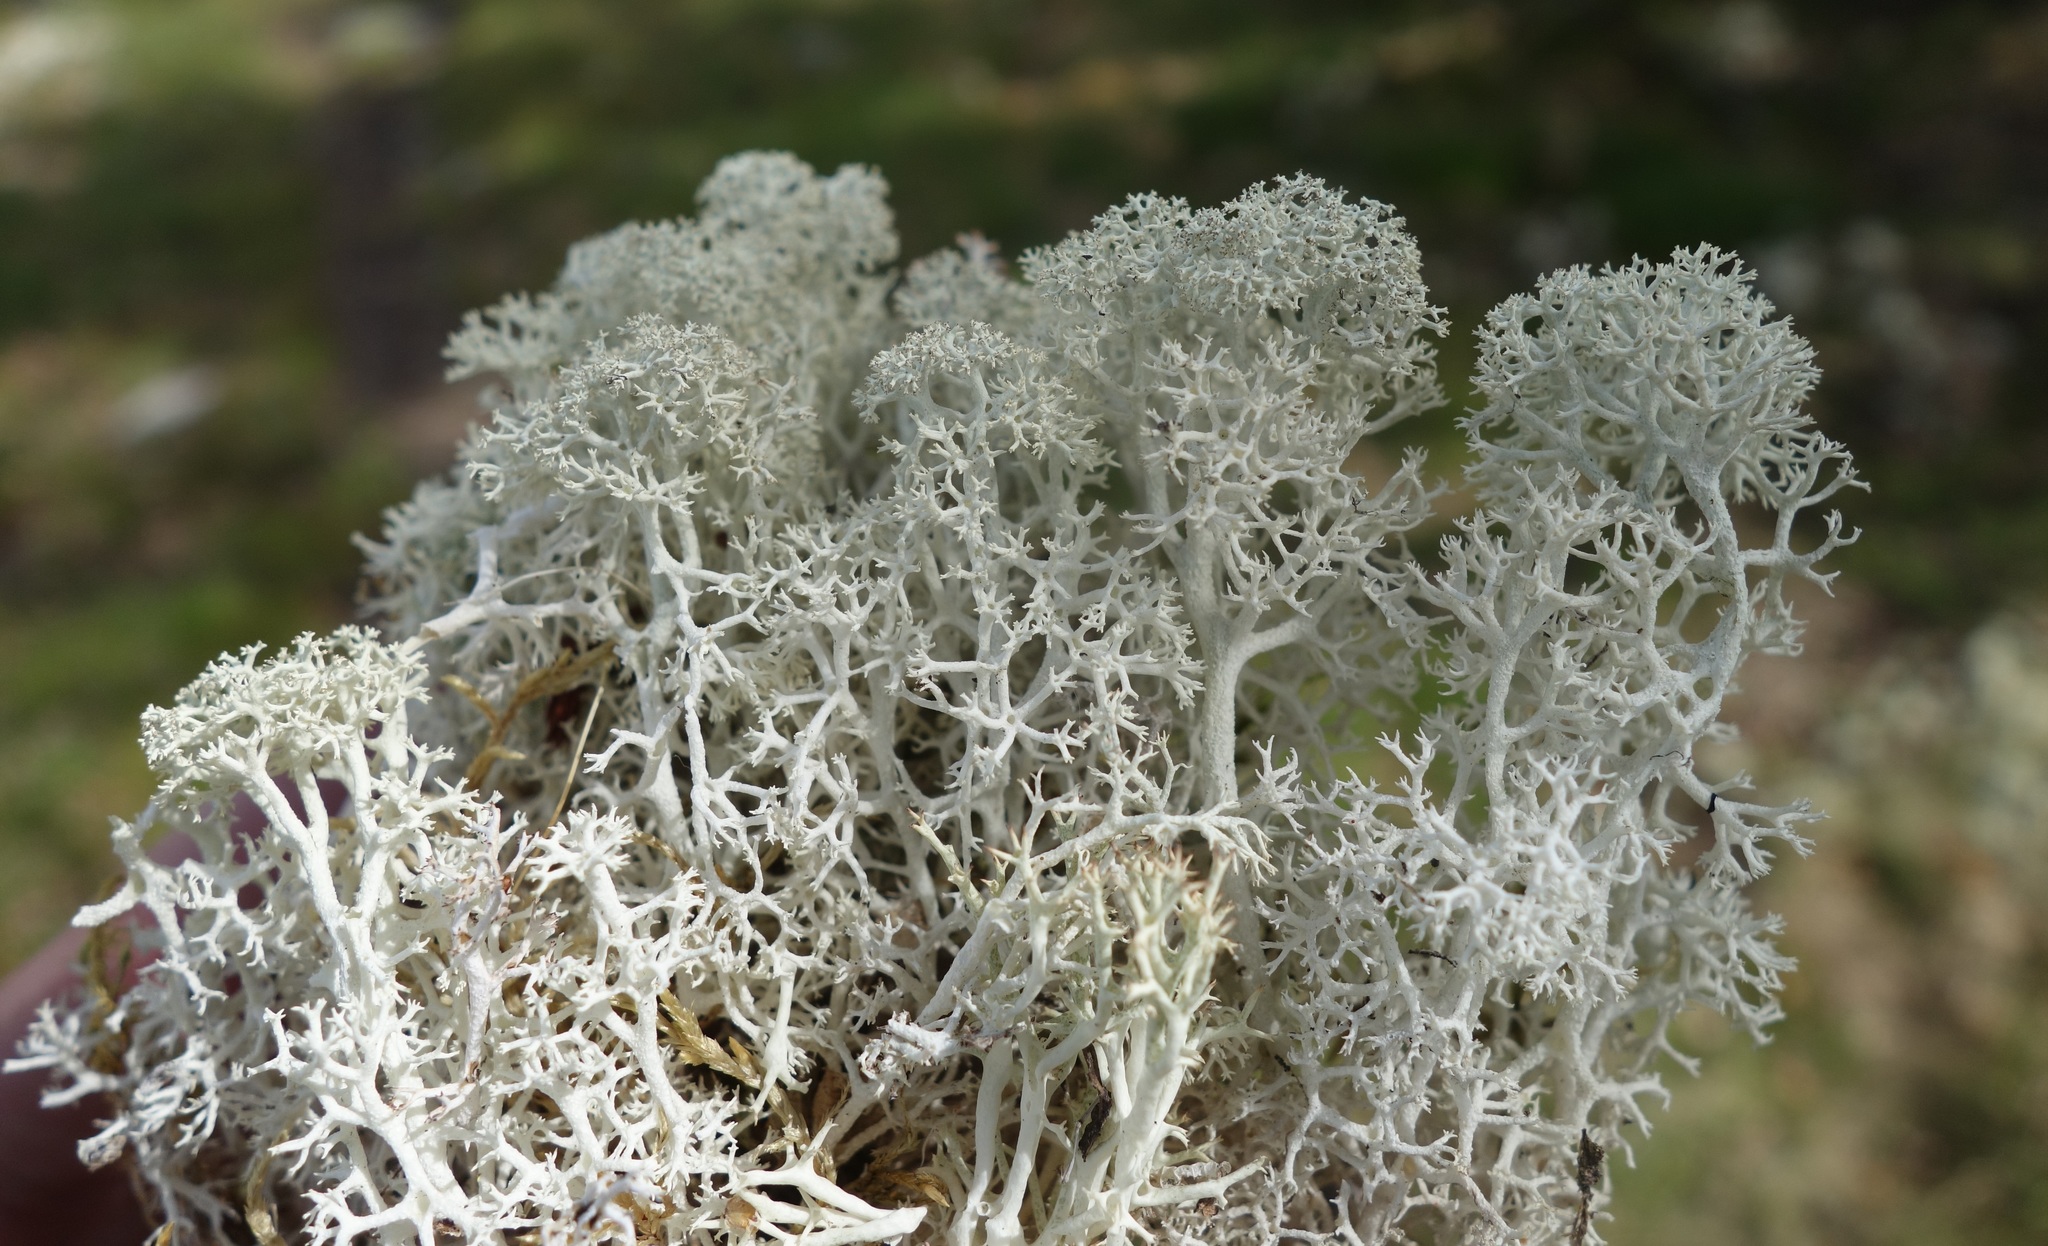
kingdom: Fungi
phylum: Ascomycota
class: Lecanoromycetes
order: Lecanorales
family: Cladoniaceae
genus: Cladonia
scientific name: Cladonia stellaris
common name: Star-tipped reindeer lichen
